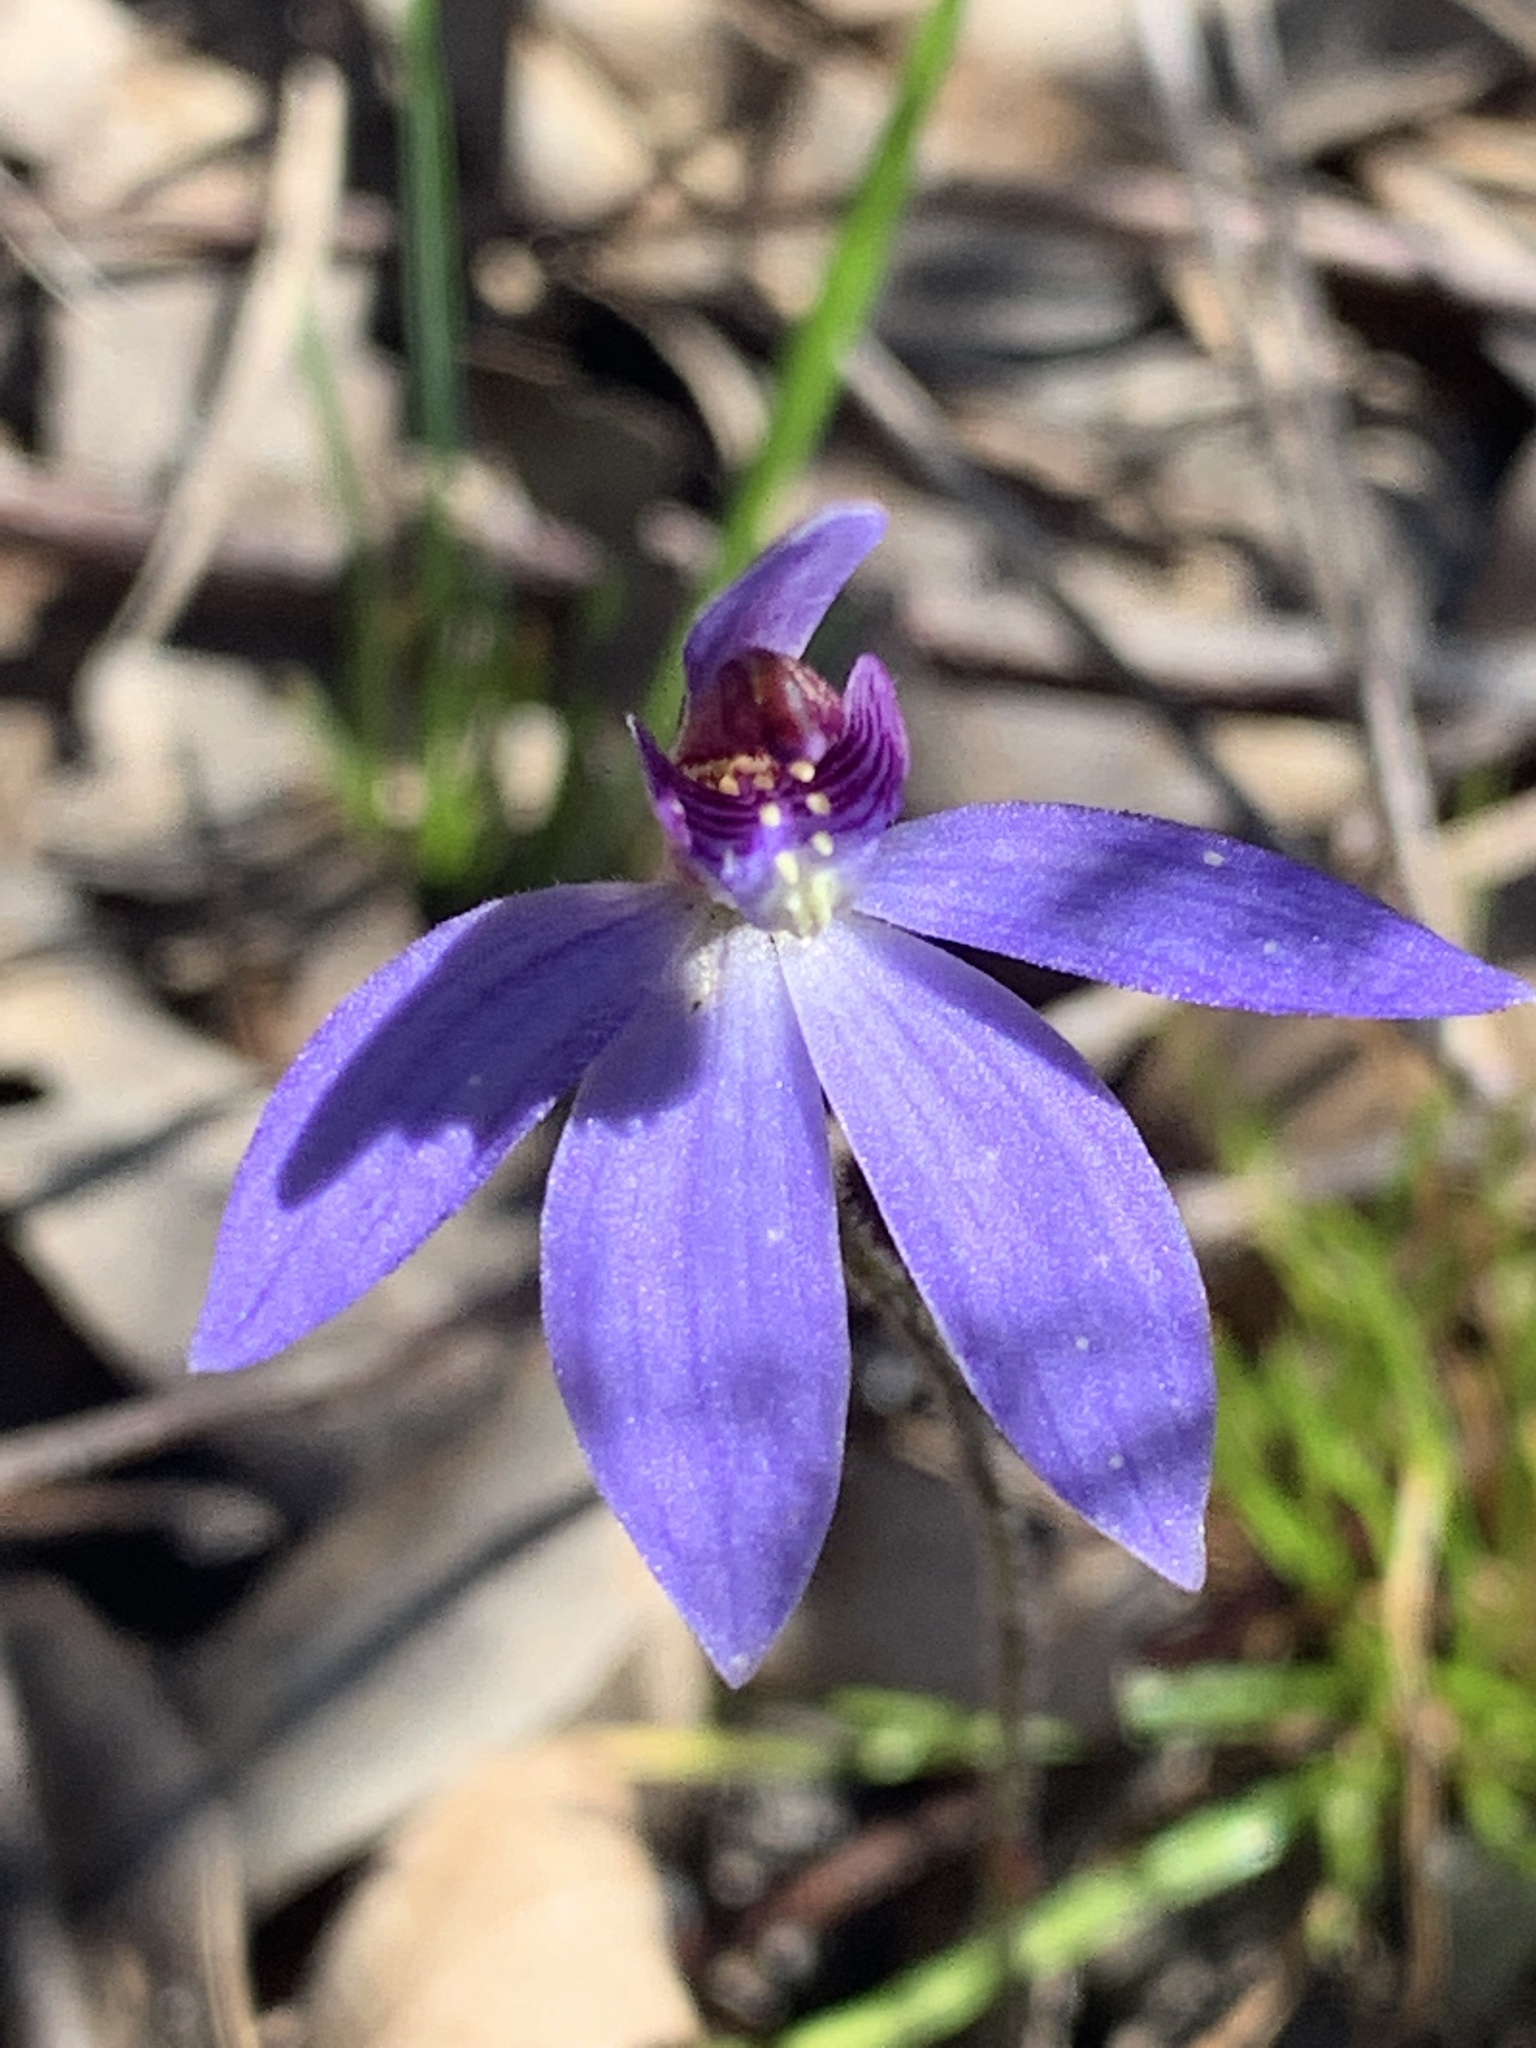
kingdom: Plantae
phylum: Tracheophyta
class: Liliopsida
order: Asparagales
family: Orchidaceae
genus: Caladenia
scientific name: Caladenia caerulea
